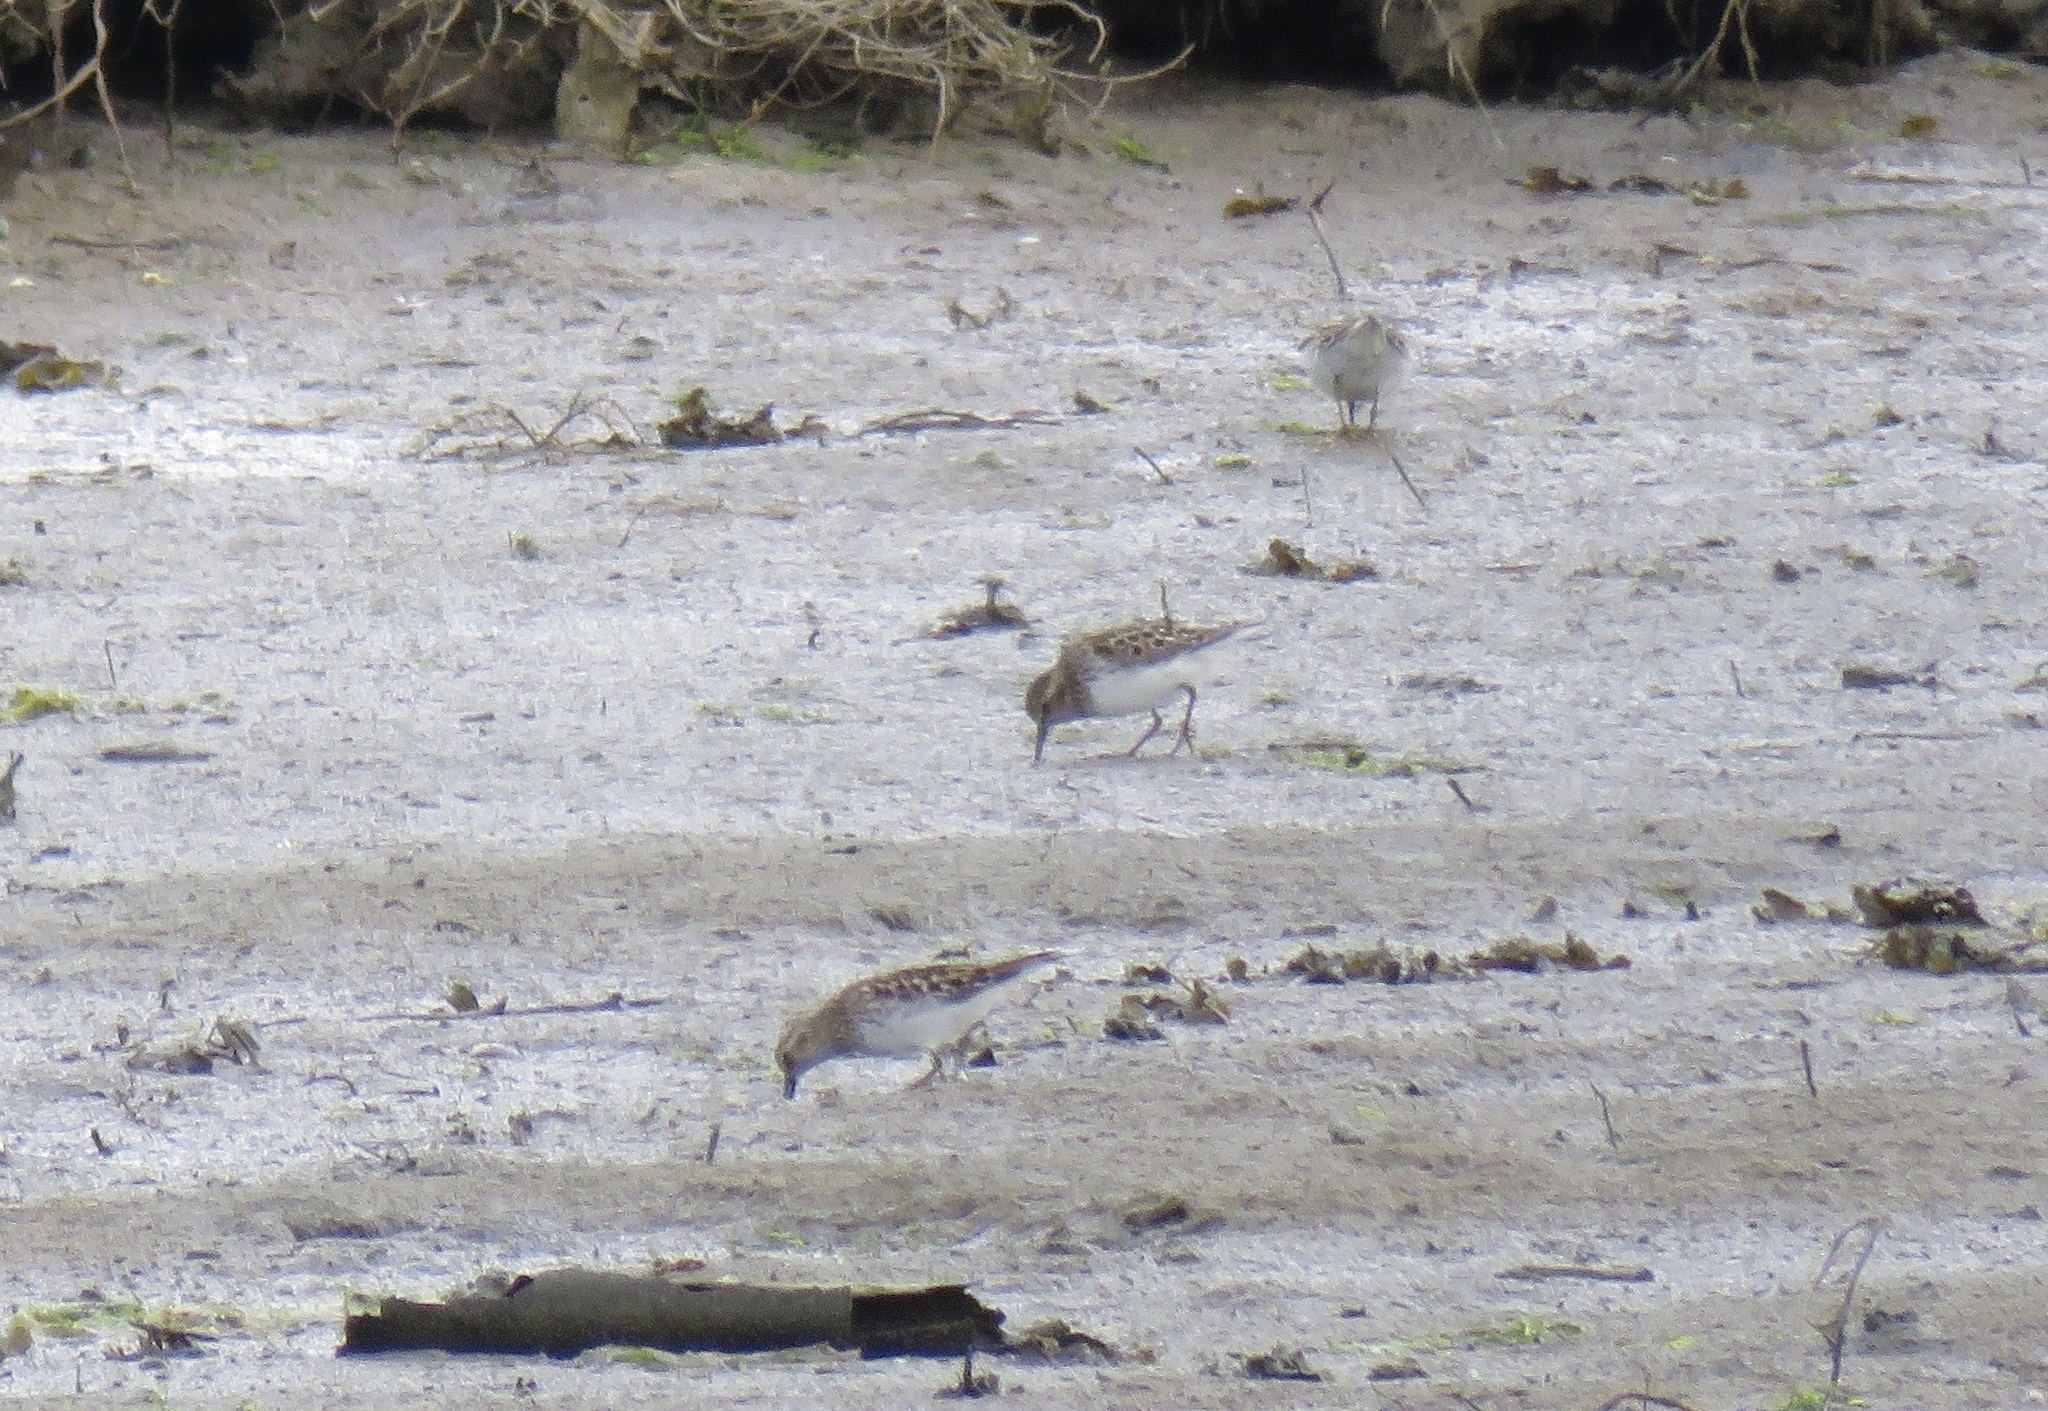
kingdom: Animalia
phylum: Chordata
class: Aves
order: Charadriiformes
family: Scolopacidae
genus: Calidris
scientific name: Calidris minutilla
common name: Least sandpiper
